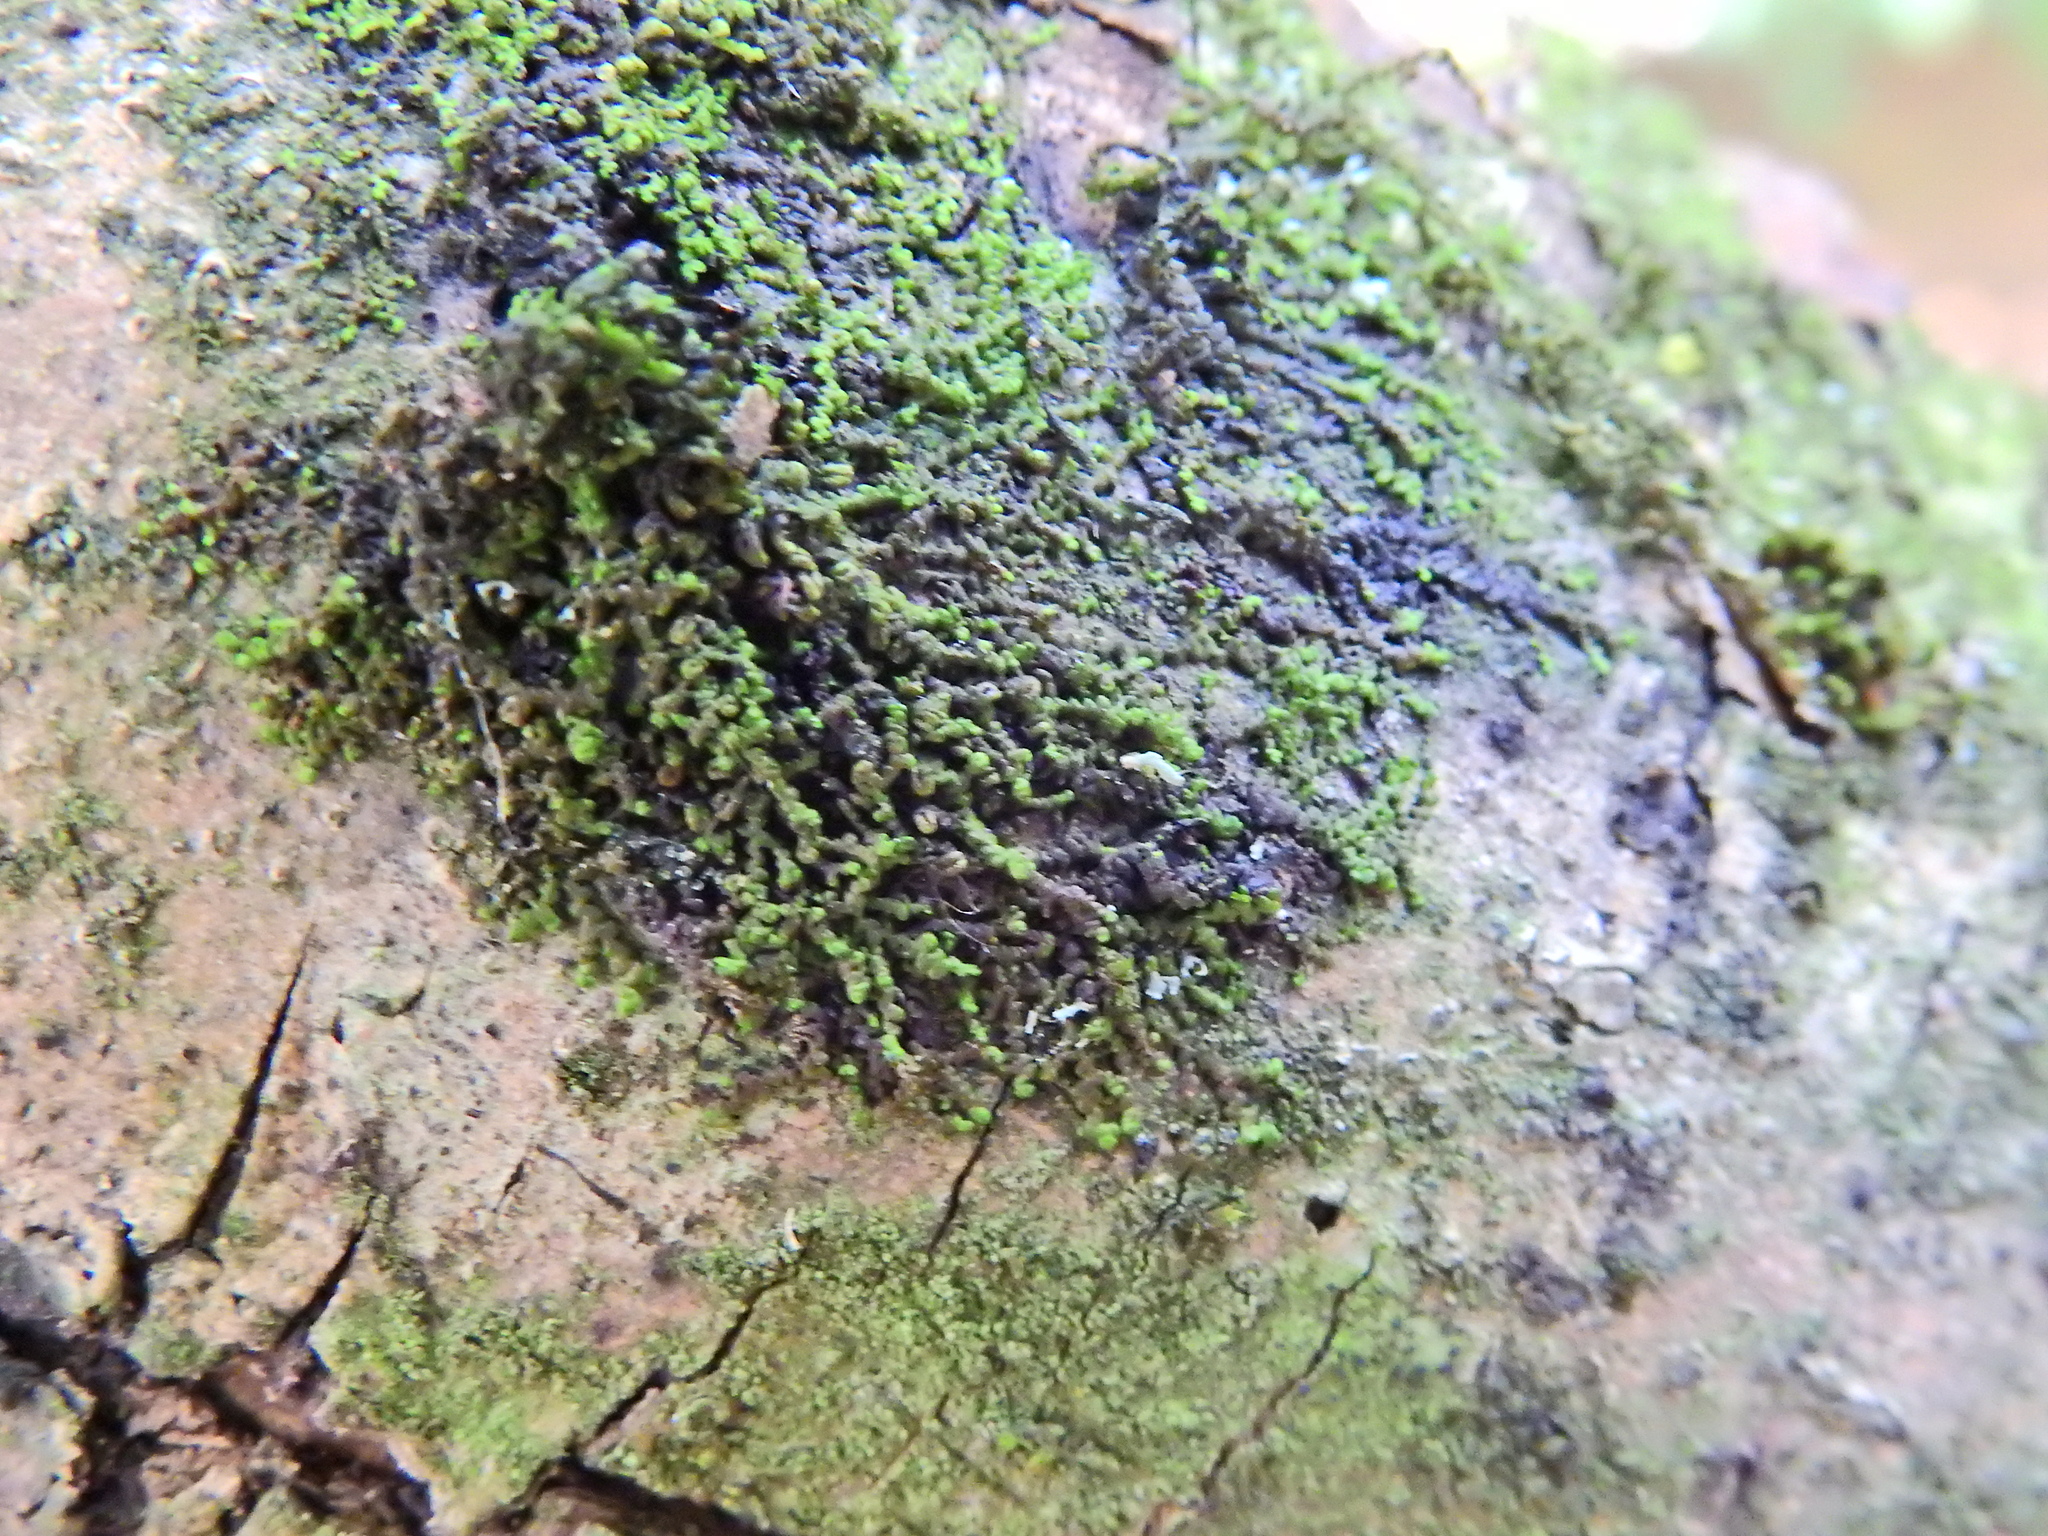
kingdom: Plantae
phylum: Marchantiophyta
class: Jungermanniopsida
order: Porellales
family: Frullaniaceae
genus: Frullania
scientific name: Frullania dilatata
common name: Dilated scalewort
